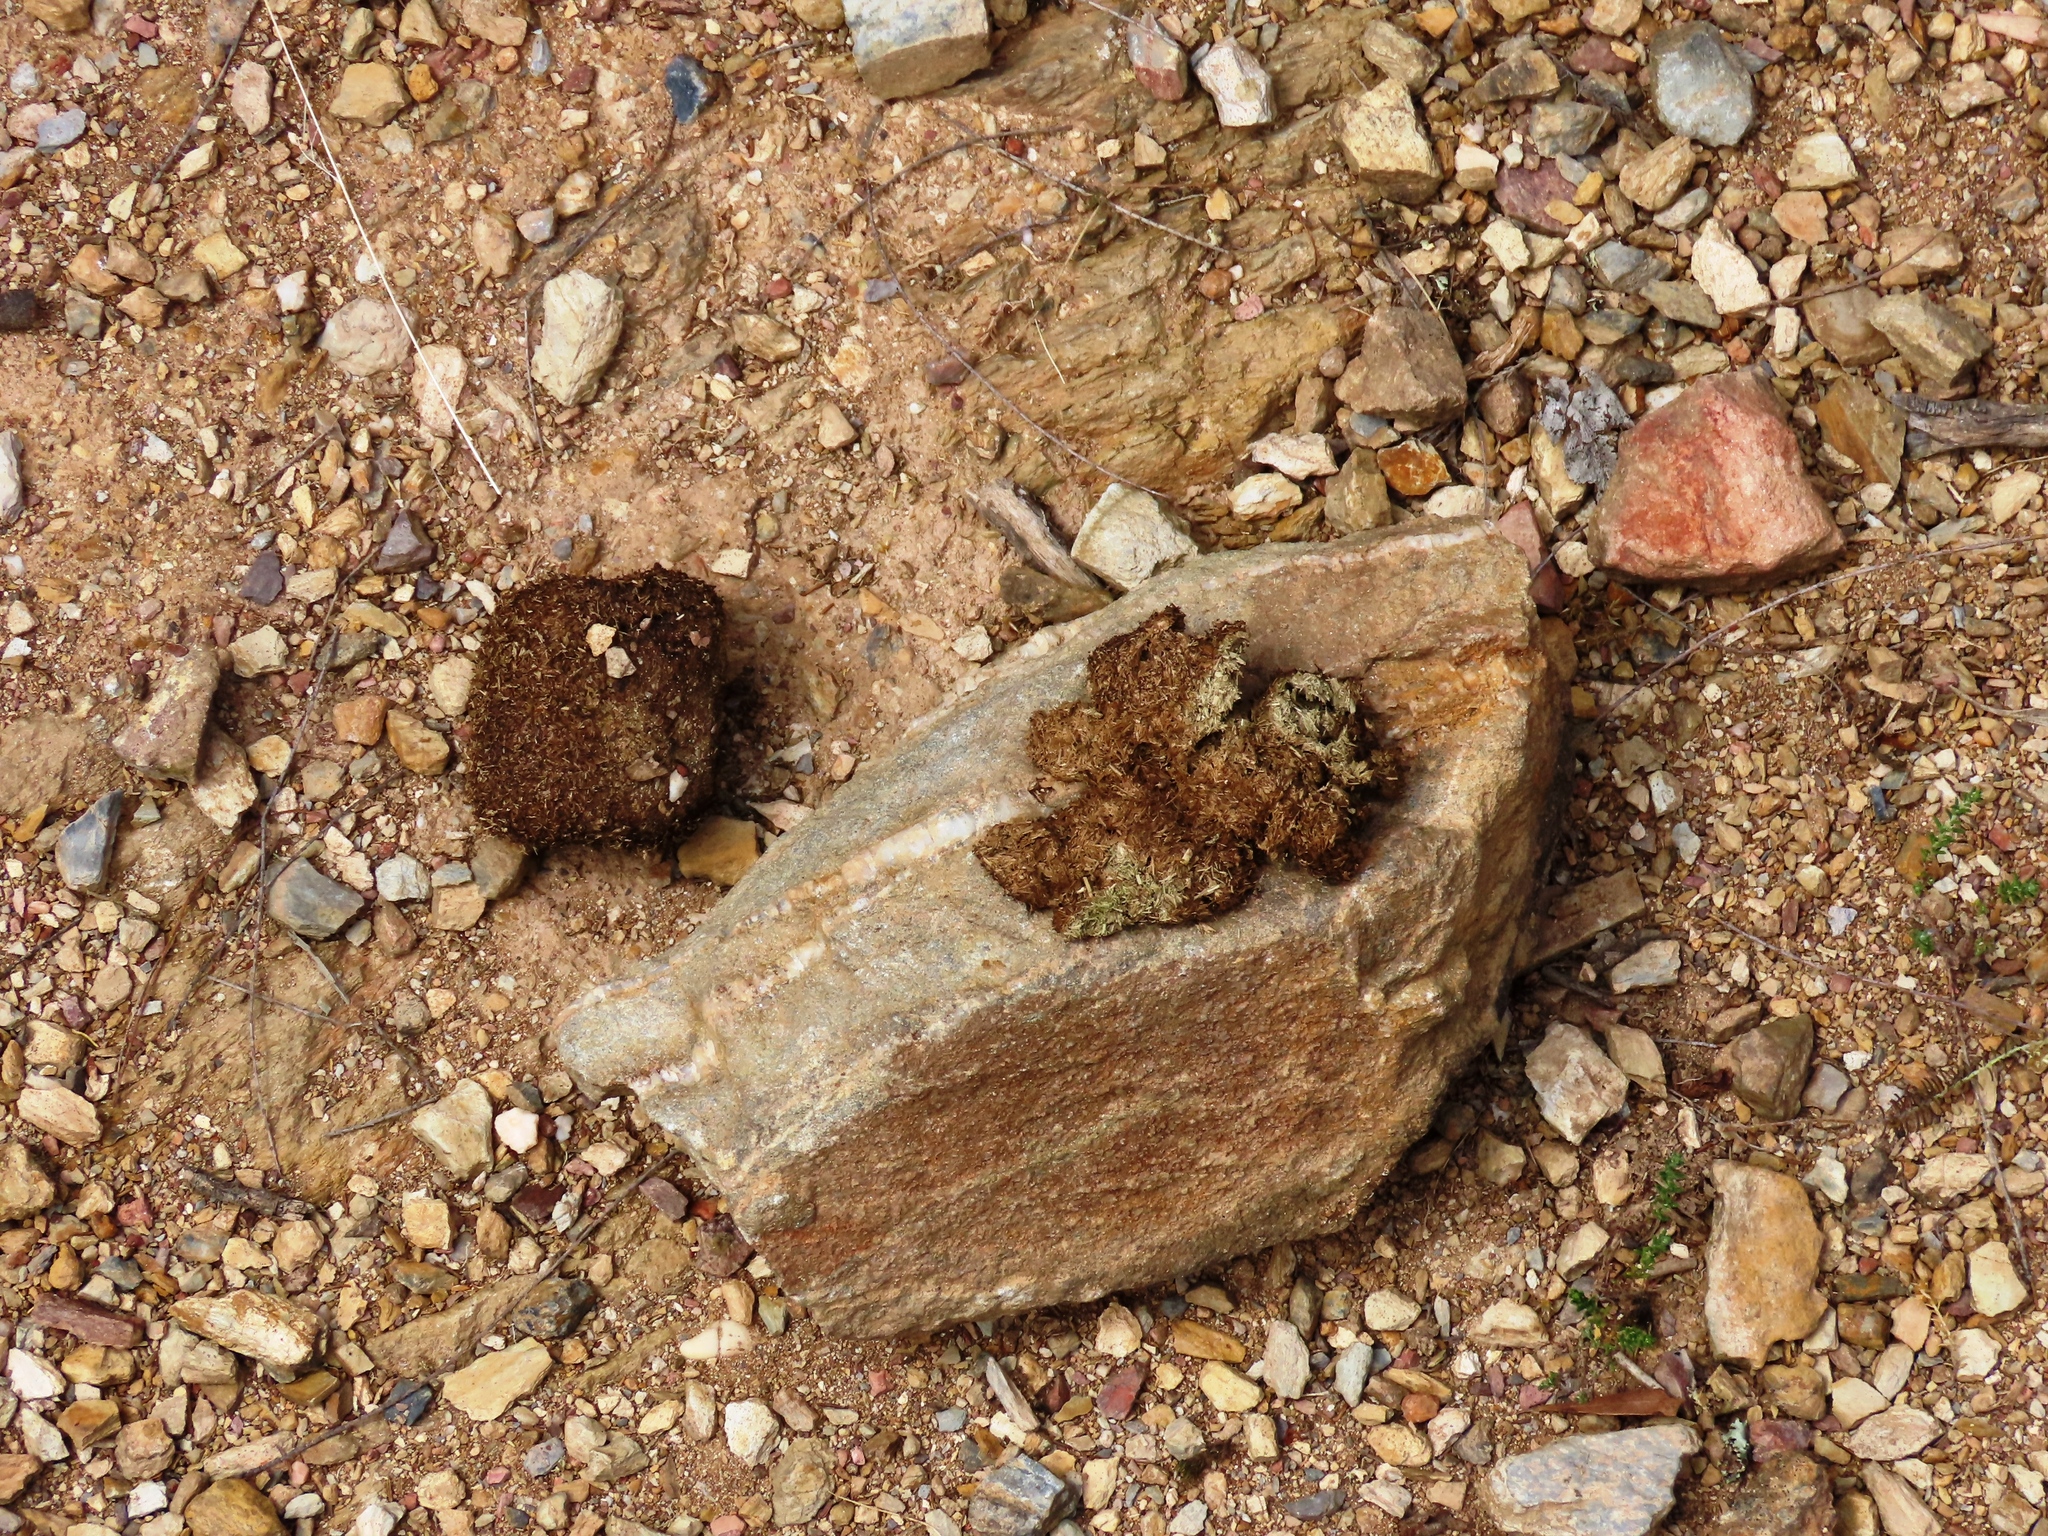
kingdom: Animalia
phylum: Chordata
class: Mammalia
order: Diprotodontia
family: Vombatidae
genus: Vombatus
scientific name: Vombatus ursinus
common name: Common wombat
